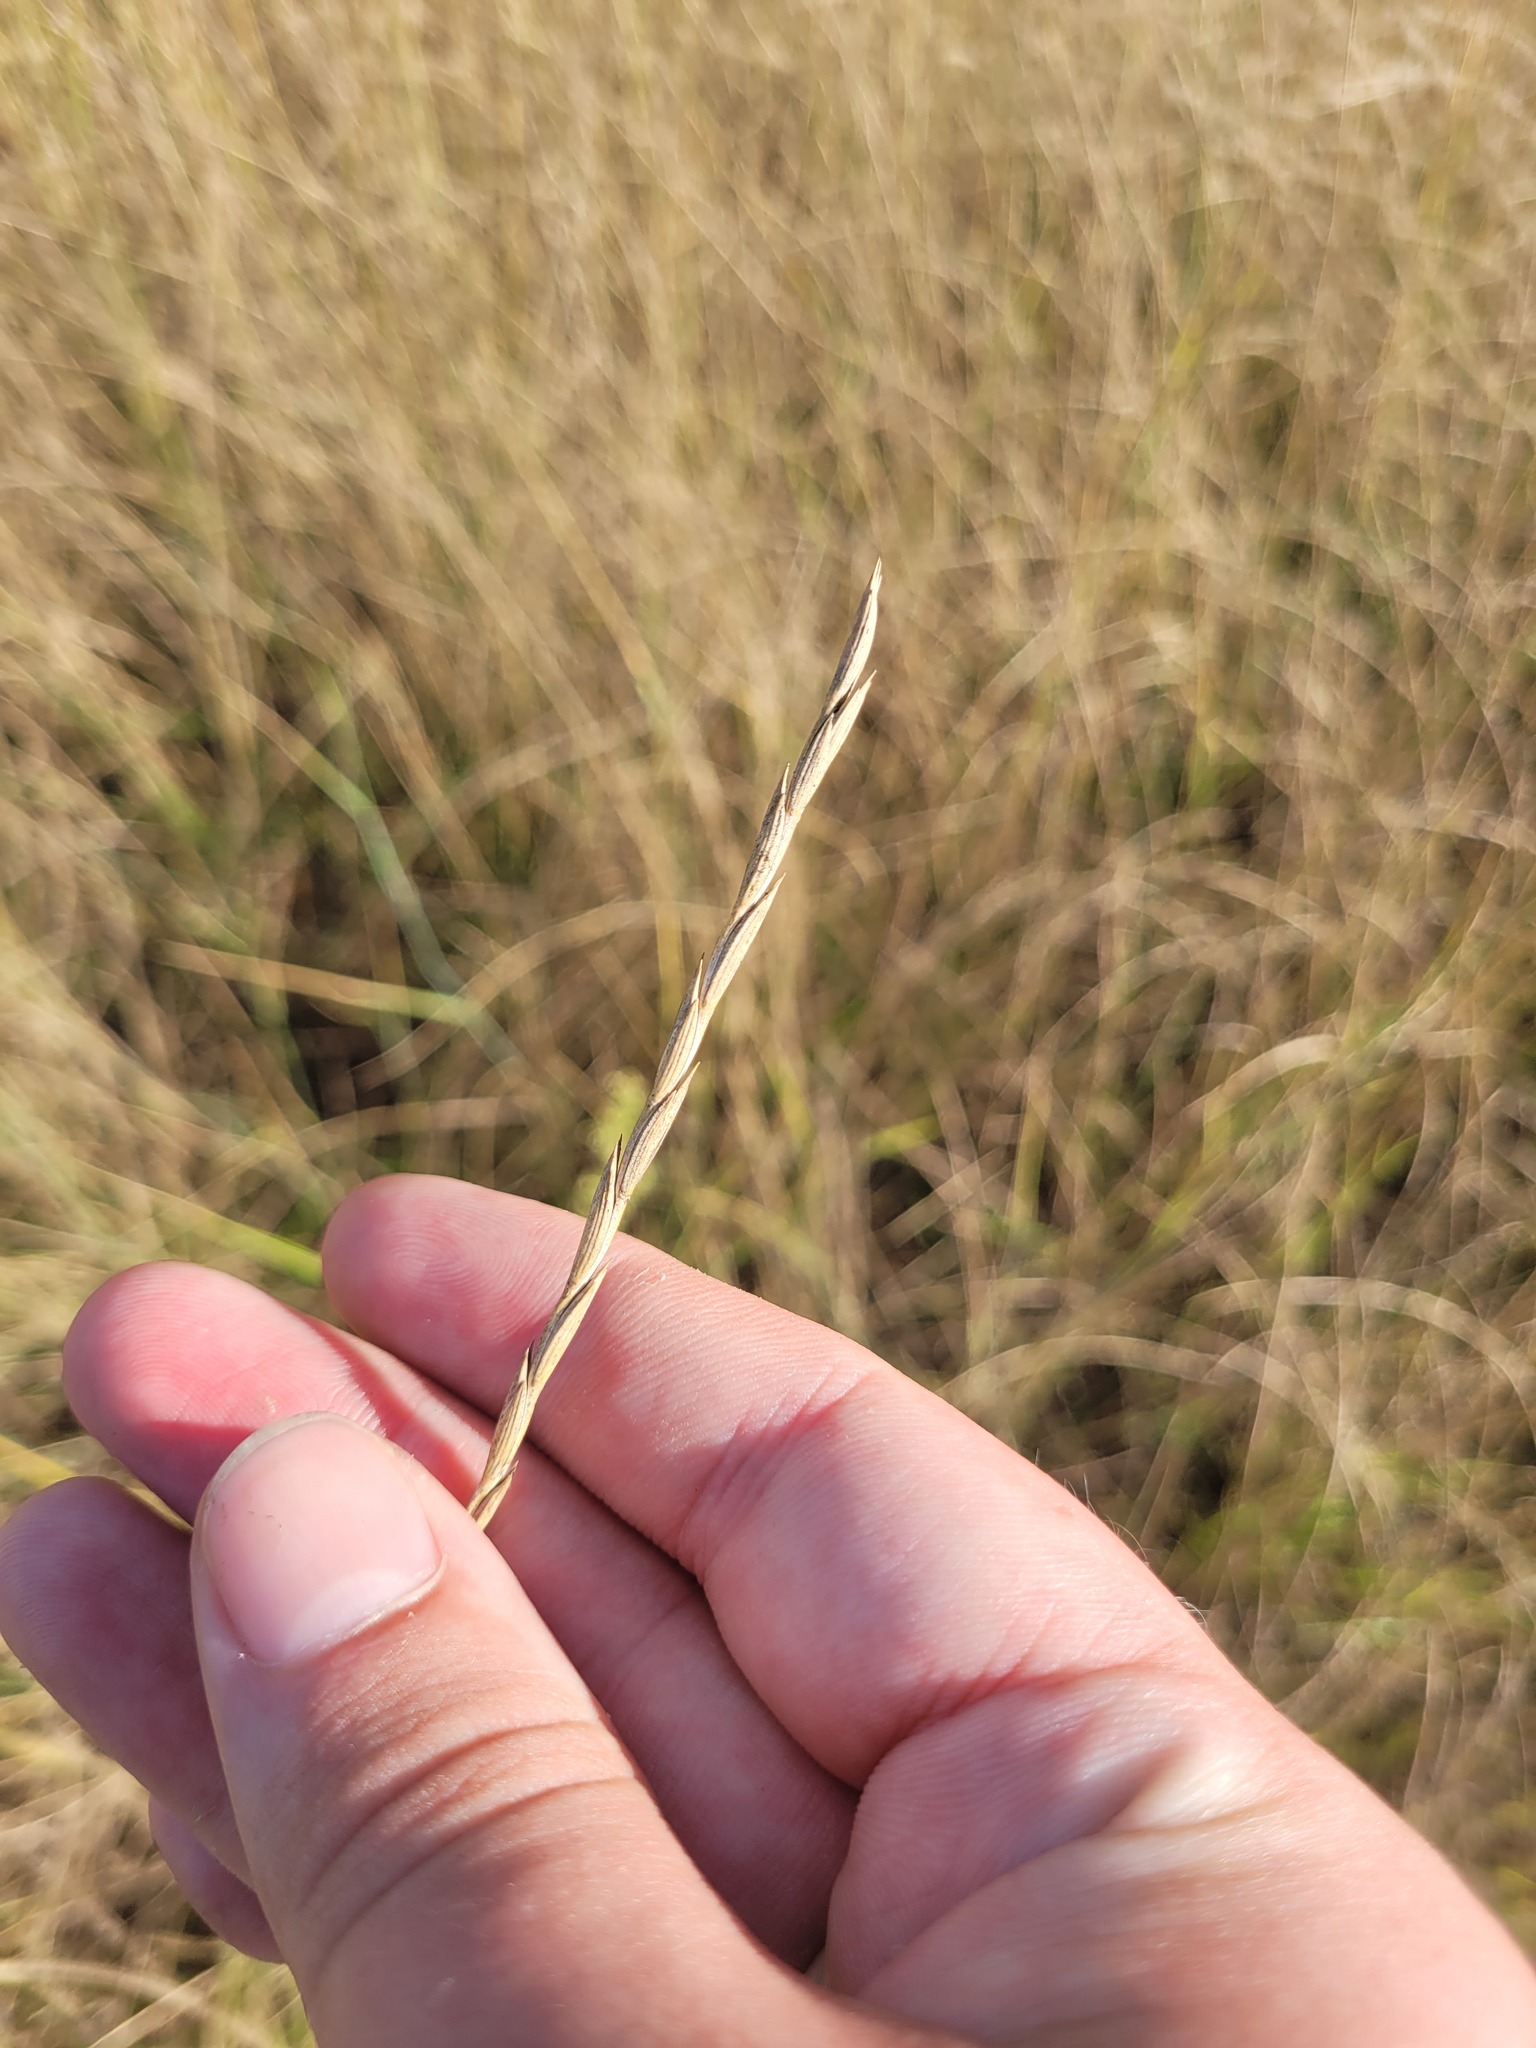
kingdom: Plantae
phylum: Tracheophyta
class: Liliopsida
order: Poales
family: Poaceae
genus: Elymus
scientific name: Elymus lolioides
